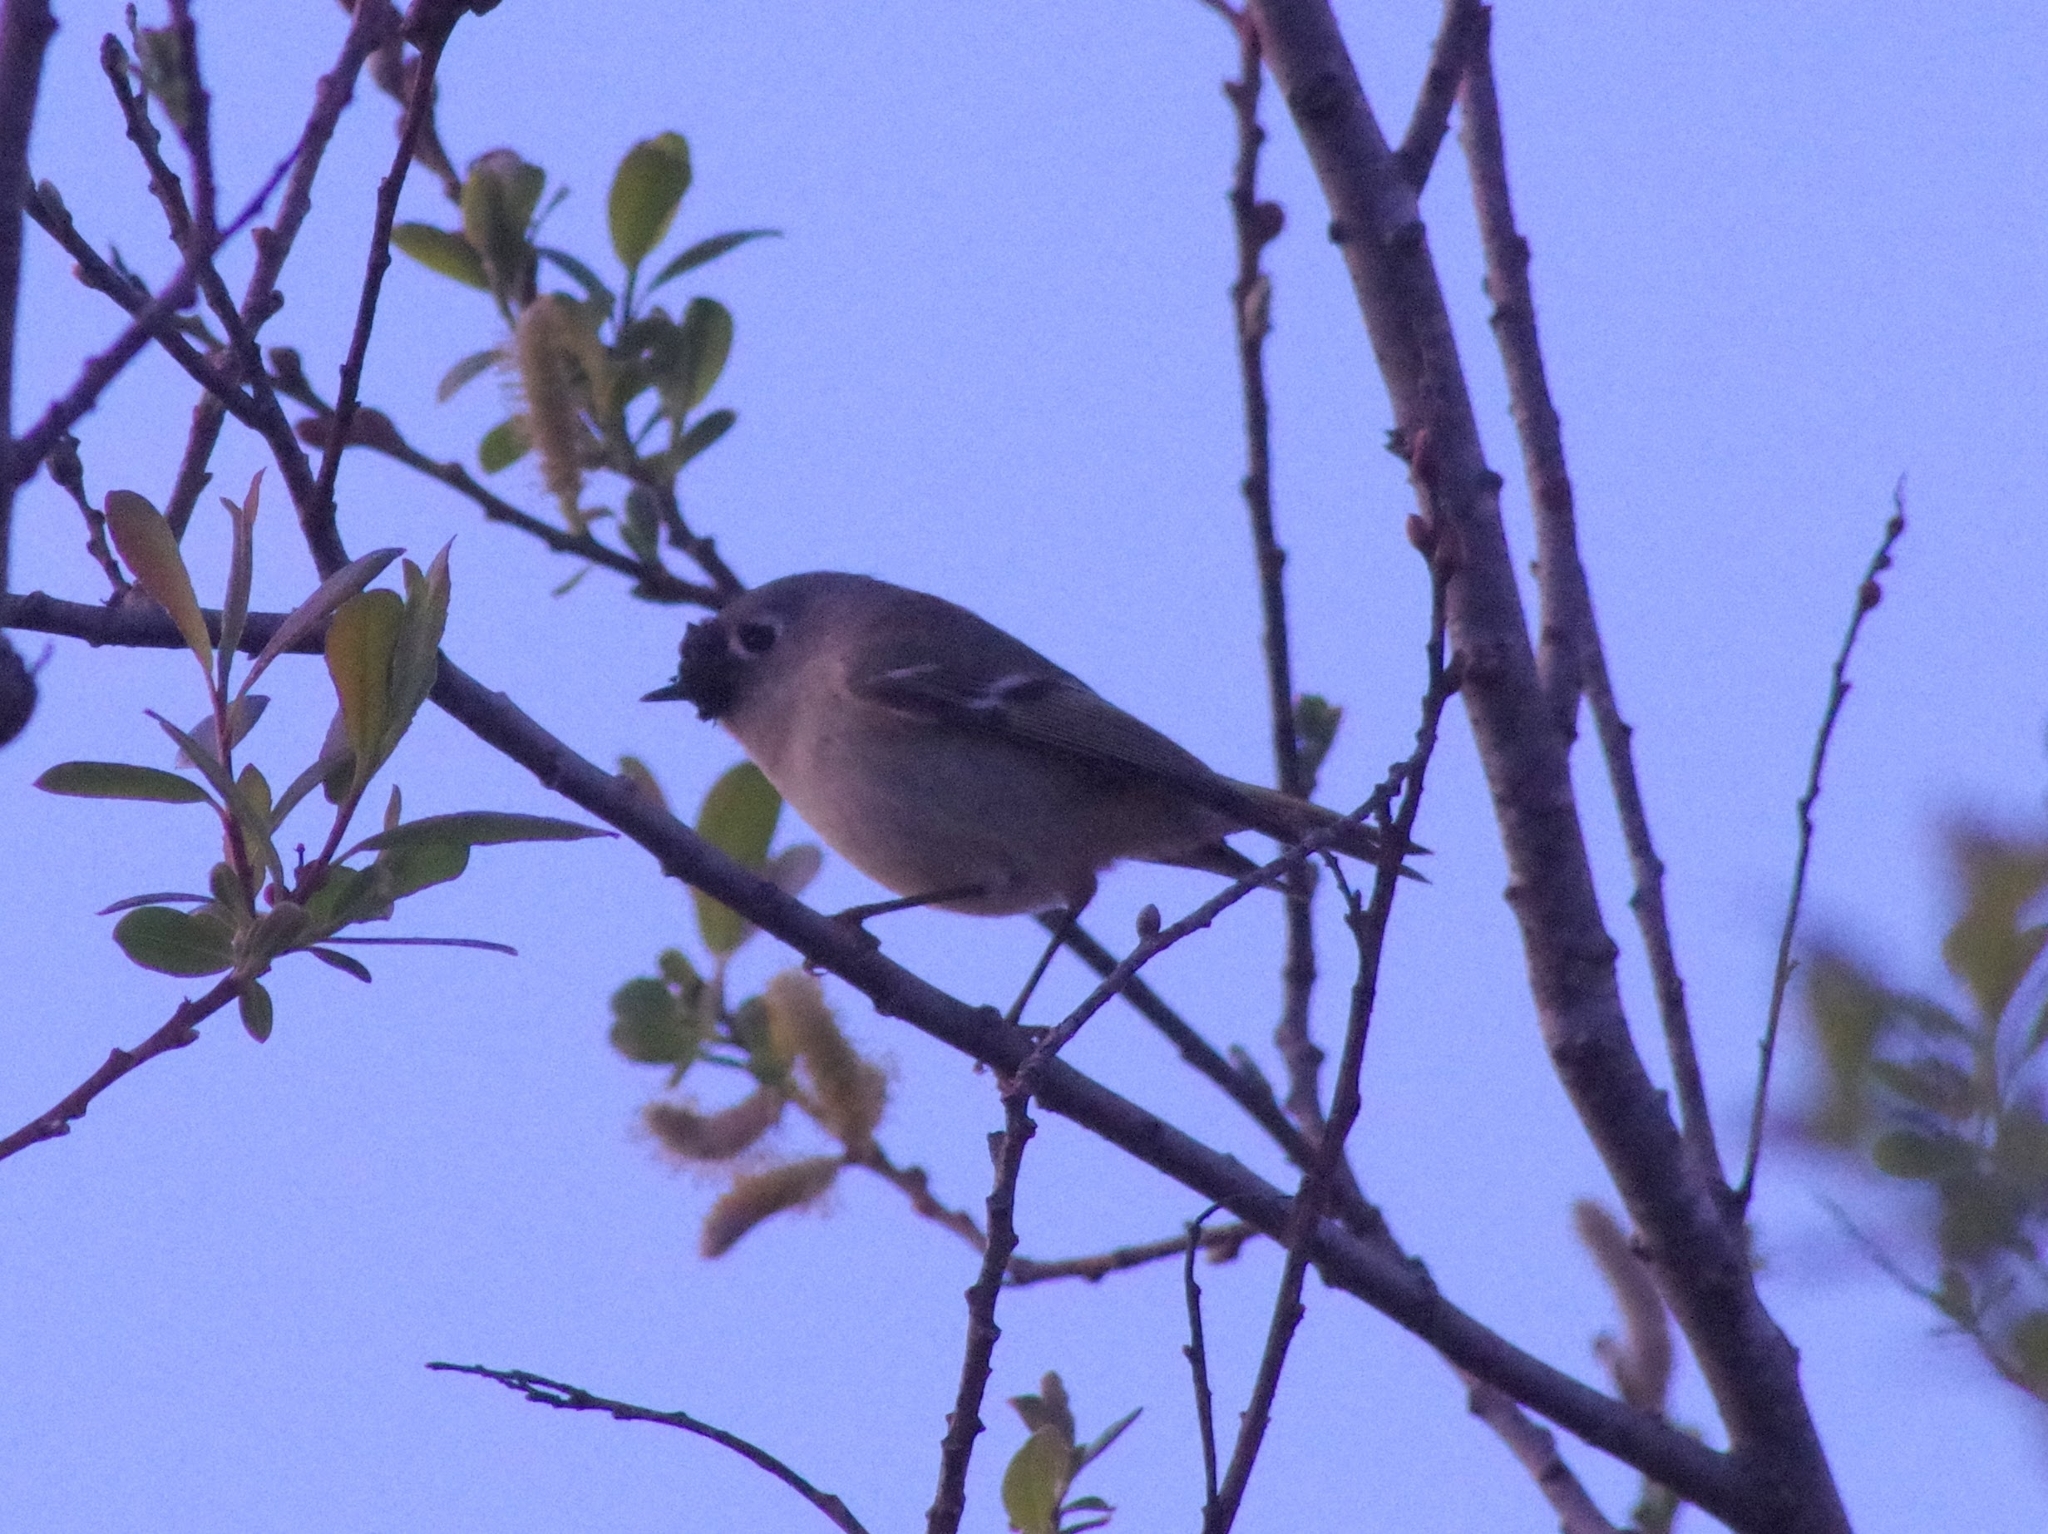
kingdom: Animalia
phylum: Chordata
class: Aves
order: Passeriformes
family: Regulidae
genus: Regulus
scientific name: Regulus calendula
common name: Ruby-crowned kinglet
